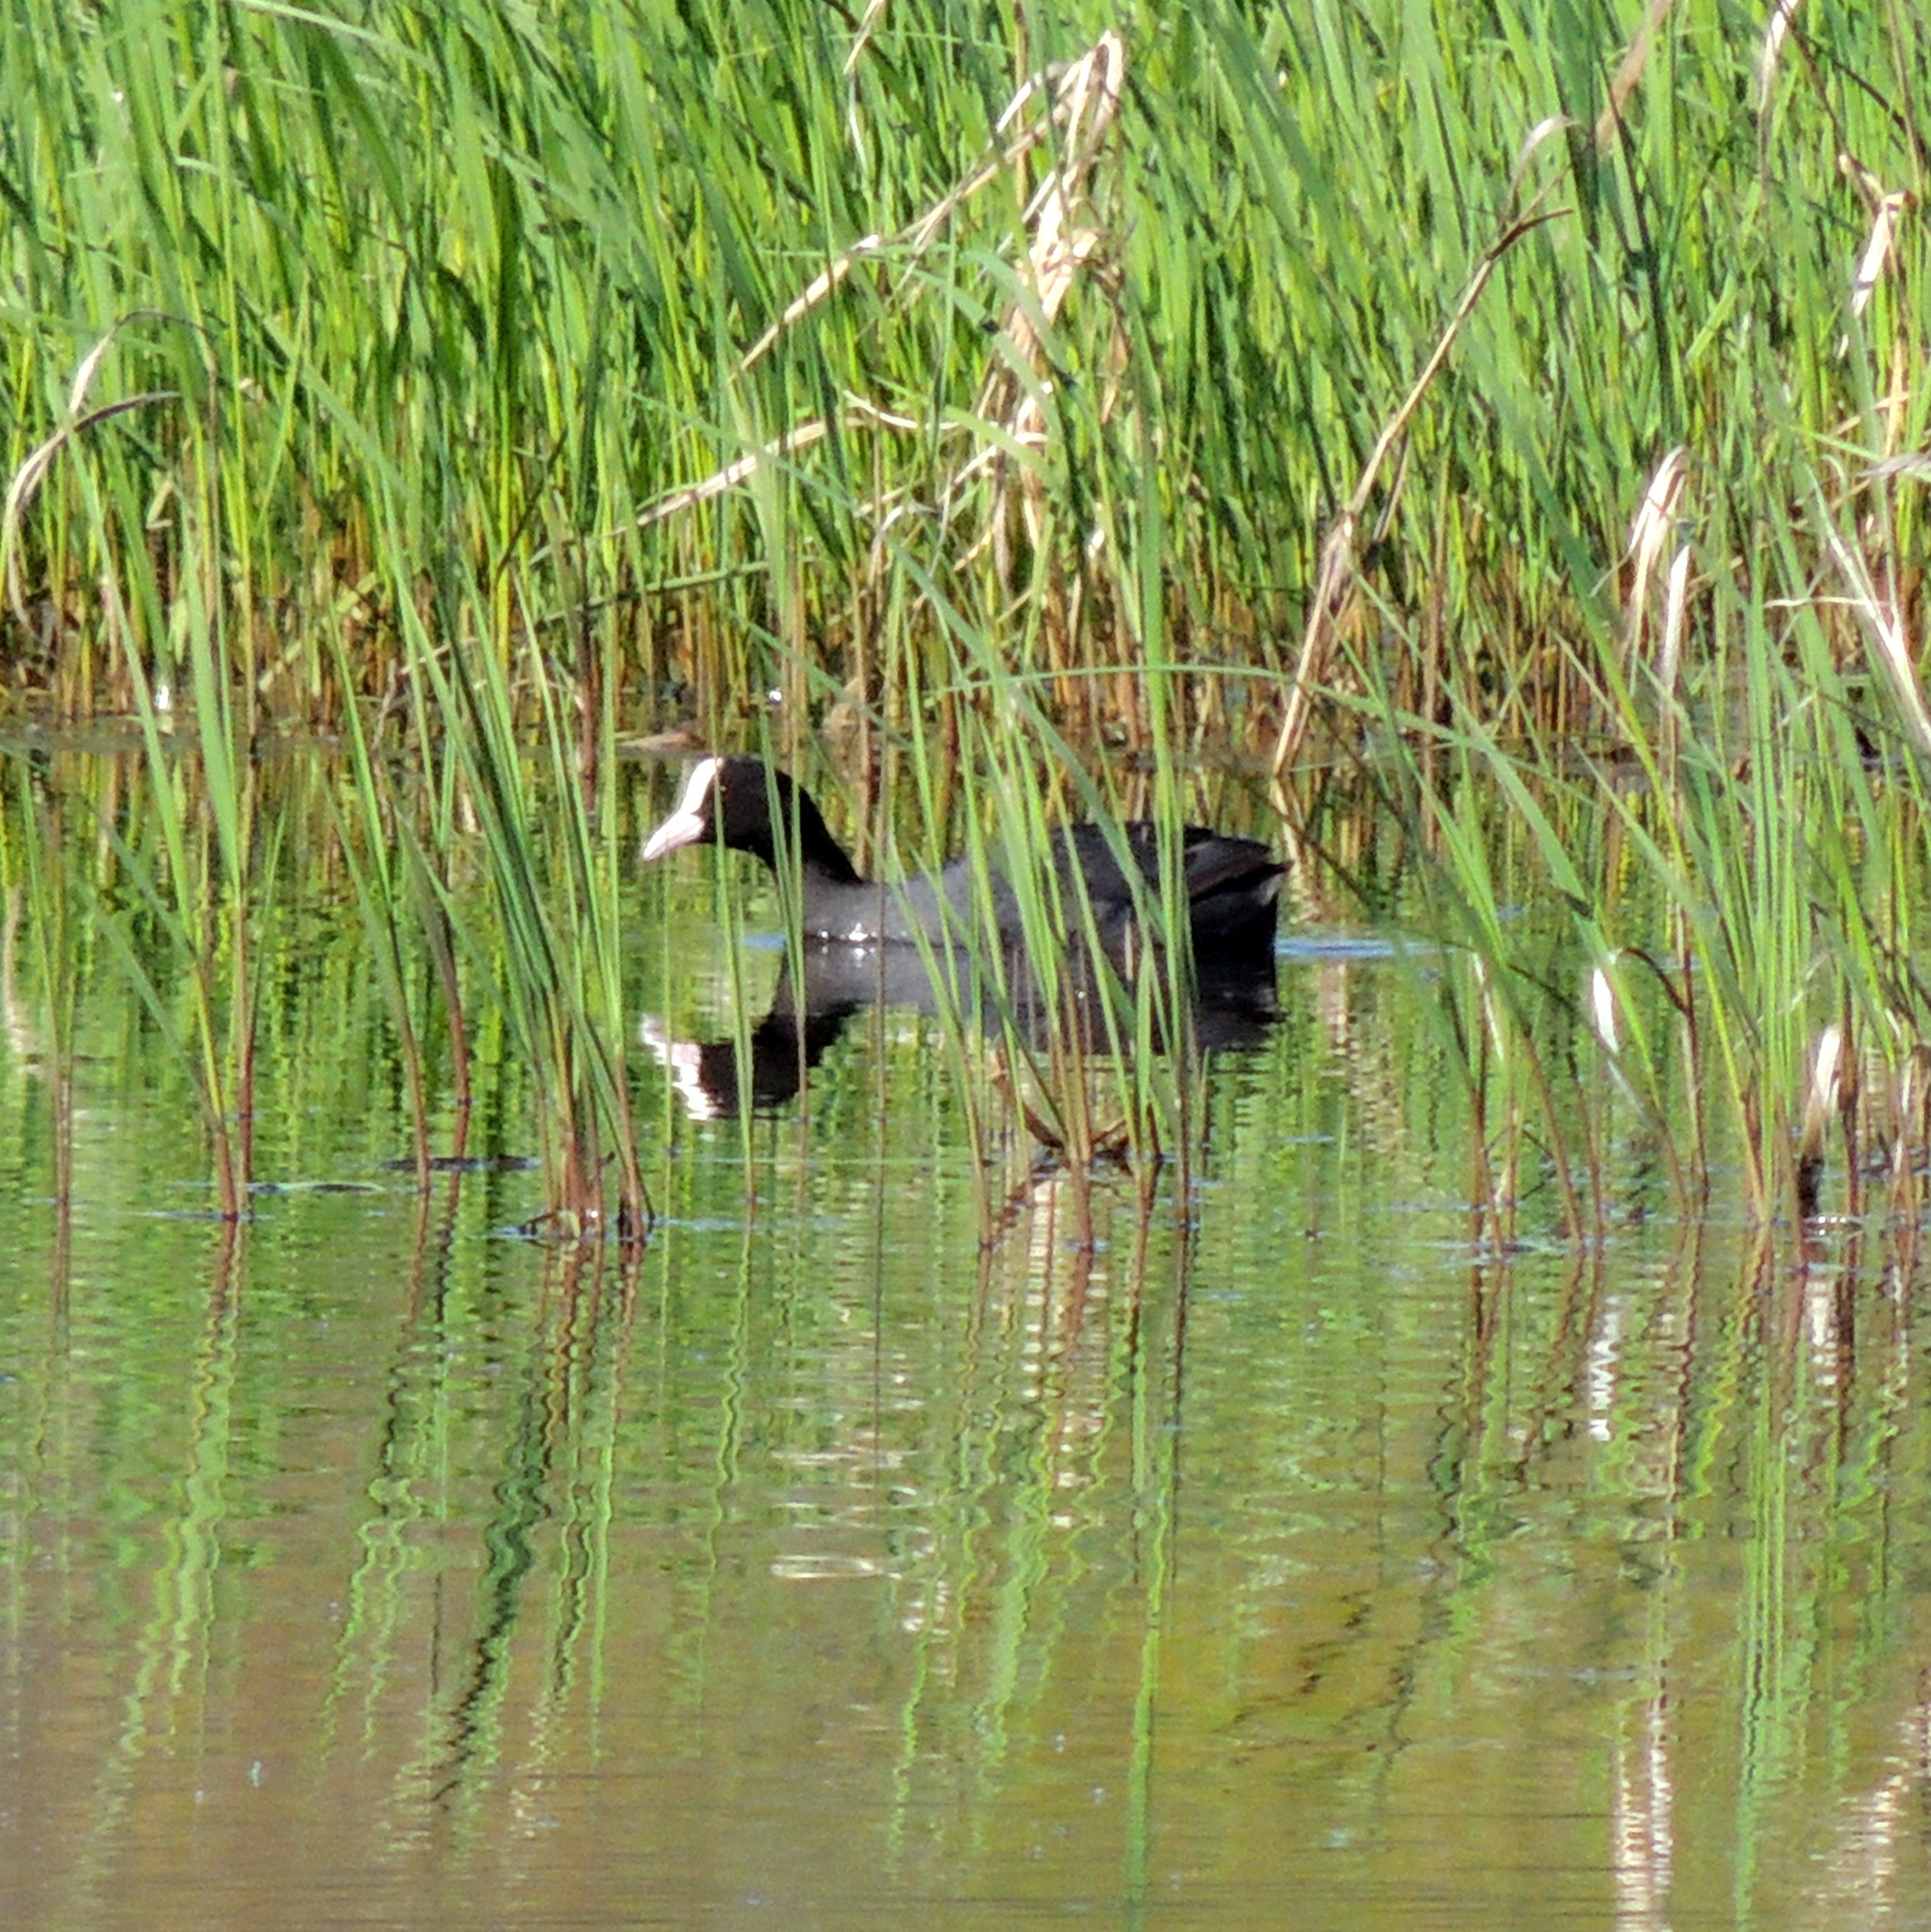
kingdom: Animalia
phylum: Chordata
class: Aves
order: Gruiformes
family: Rallidae
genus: Fulica
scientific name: Fulica atra
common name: Eurasian coot
